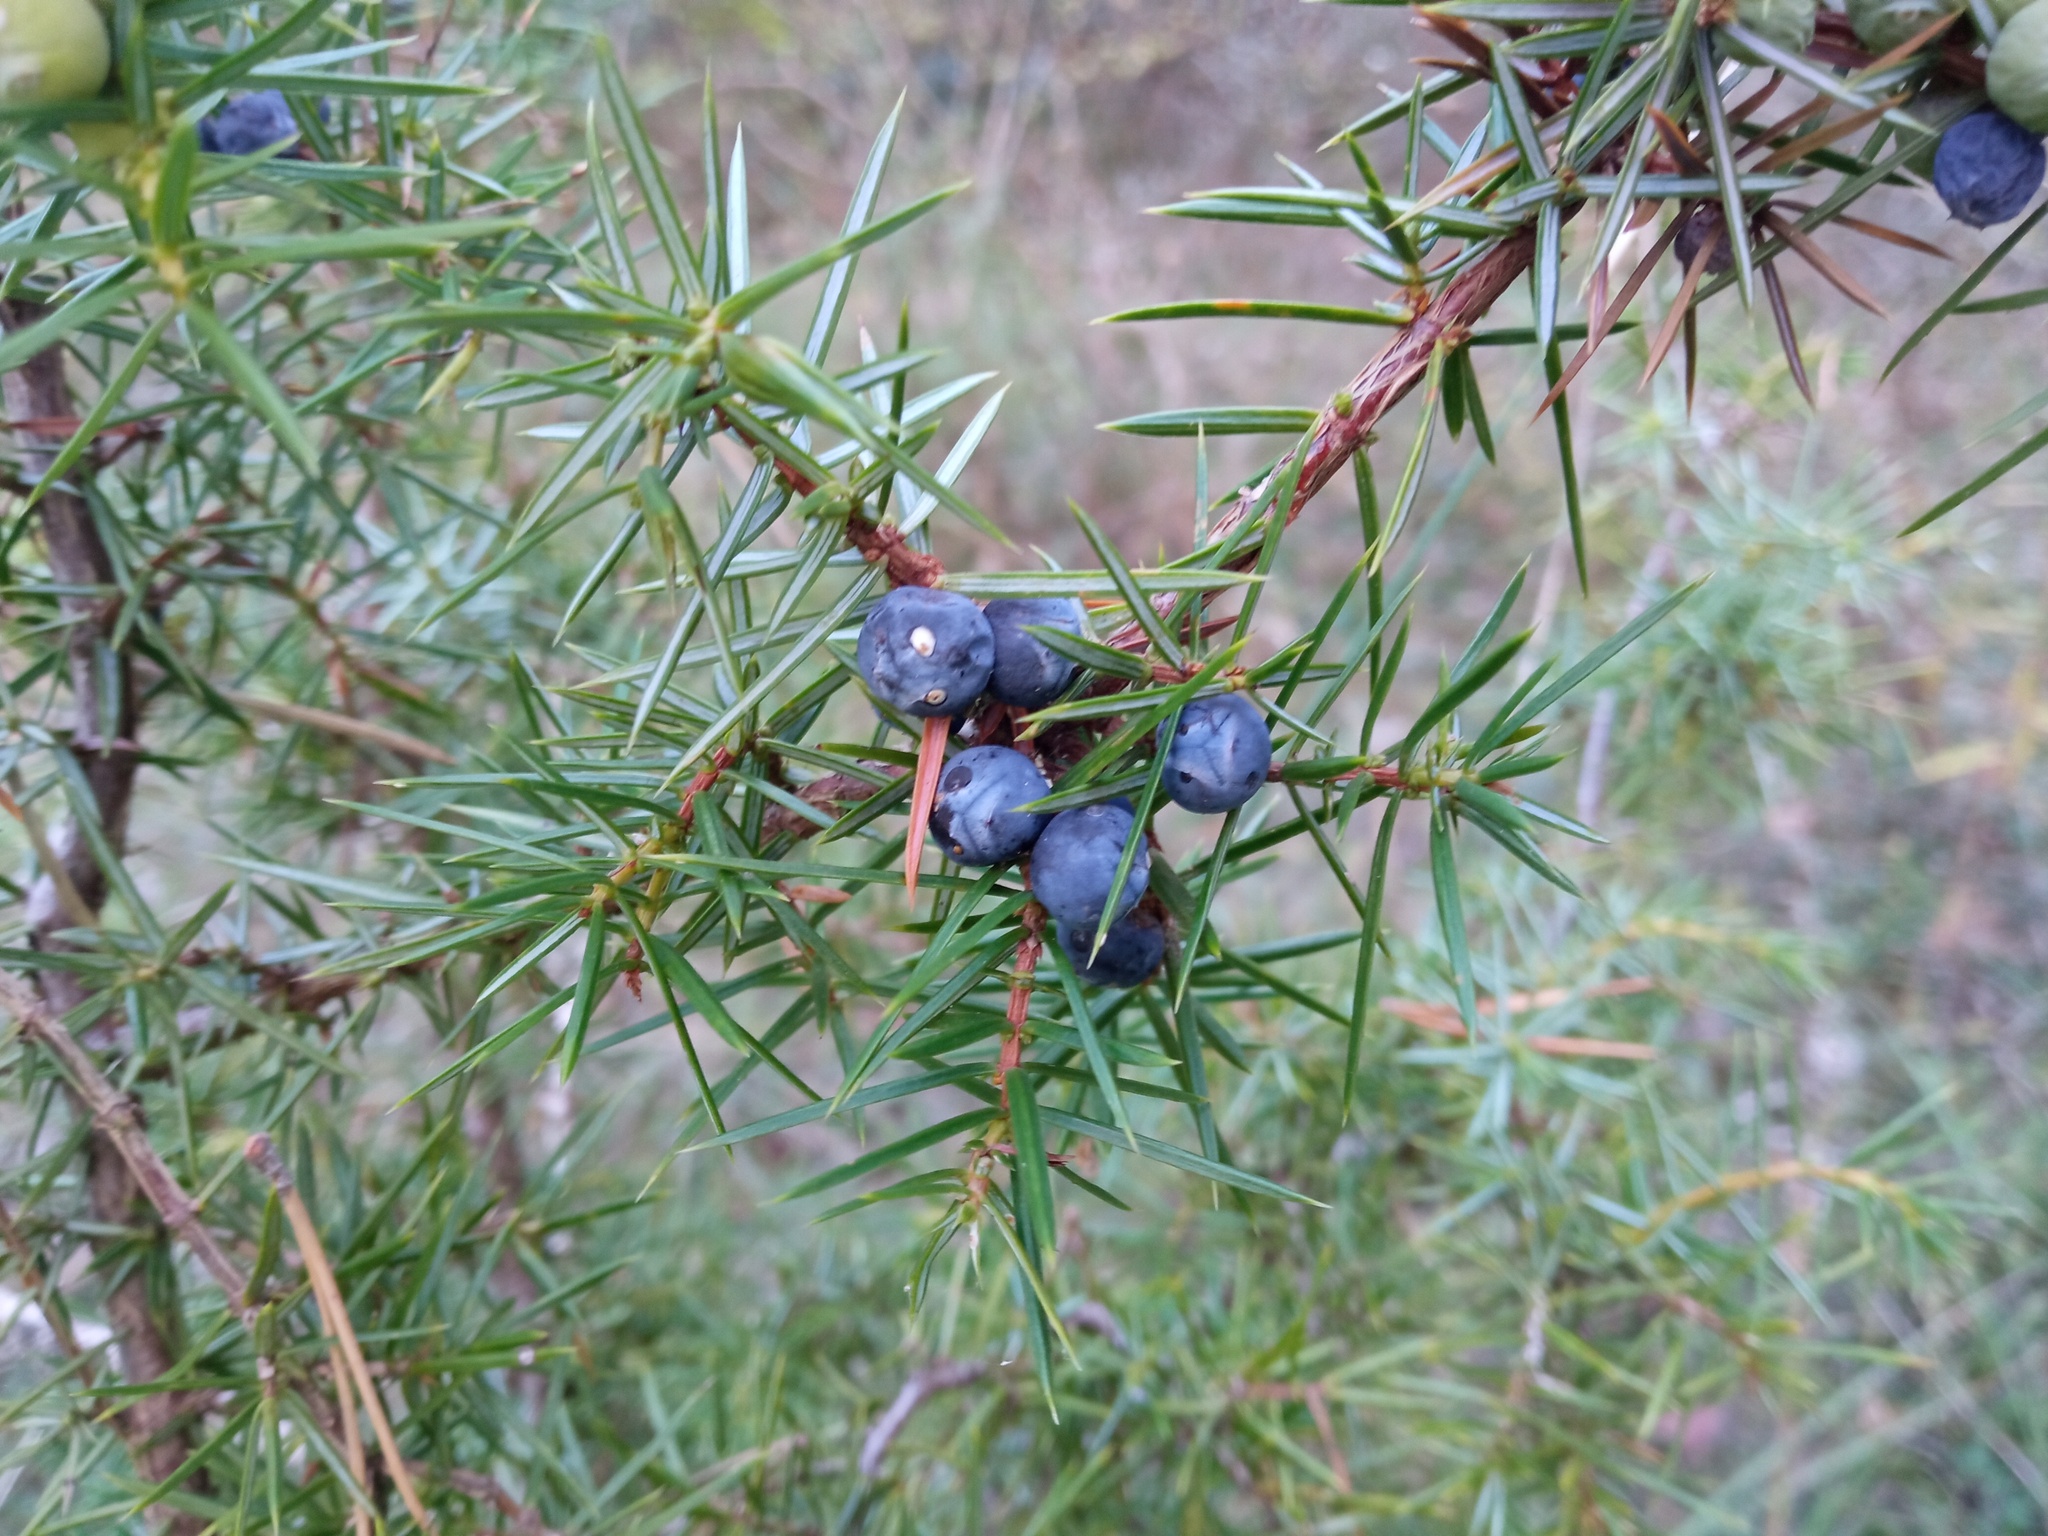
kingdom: Plantae
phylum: Tracheophyta
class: Pinopsida
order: Pinales
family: Cupressaceae
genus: Juniperus
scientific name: Juniperus communis
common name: Common juniper
